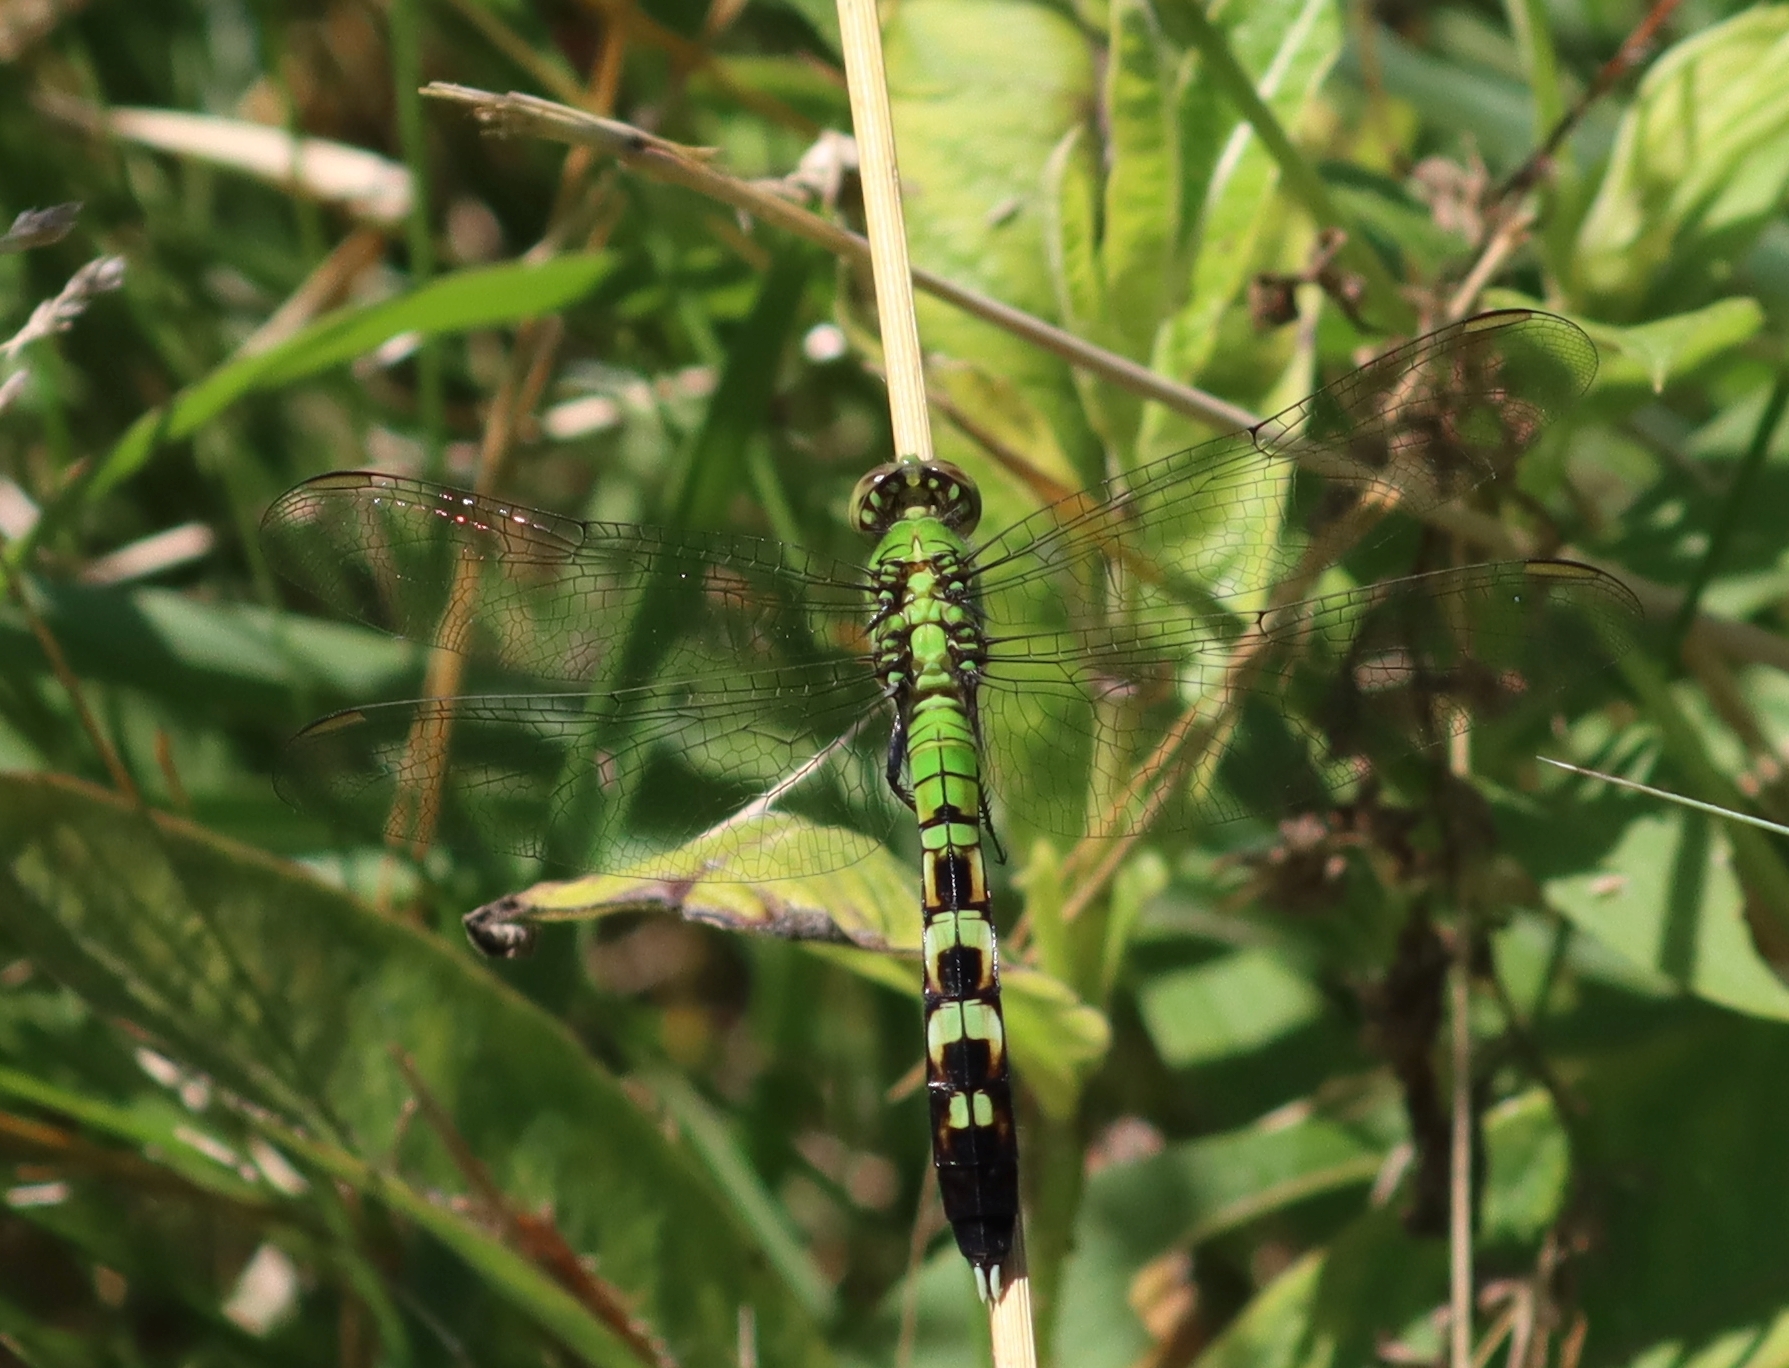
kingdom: Animalia
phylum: Arthropoda
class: Insecta
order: Odonata
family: Libellulidae
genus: Erythemis
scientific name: Erythemis simplicicollis
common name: Eastern pondhawk
